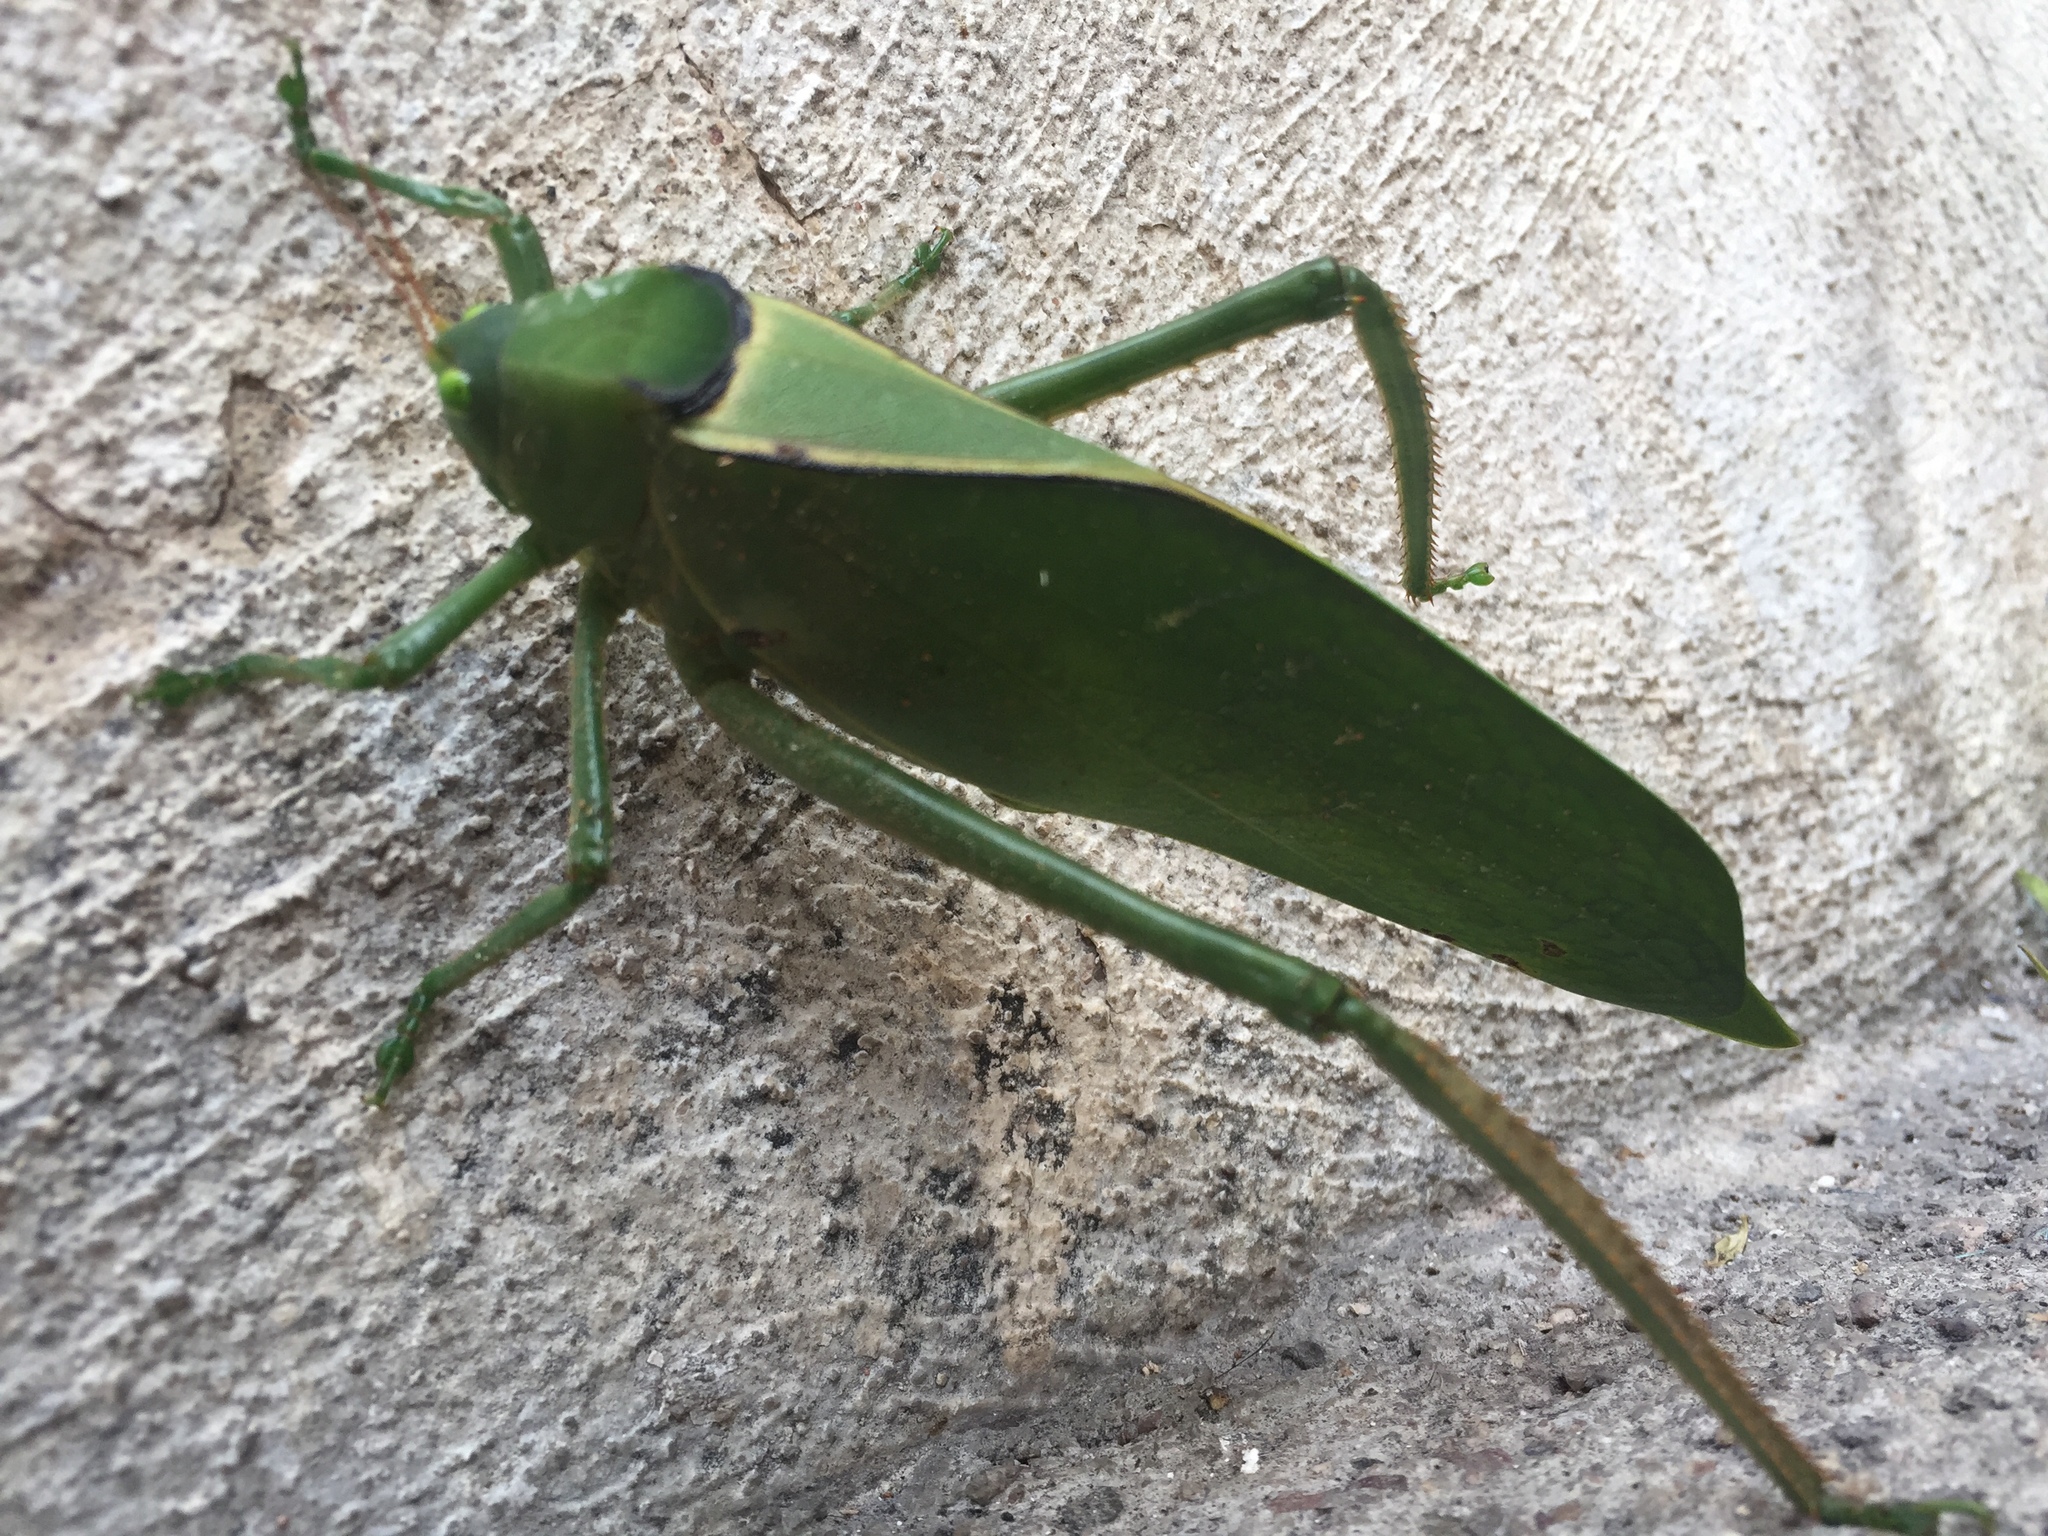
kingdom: Animalia
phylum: Arthropoda
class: Insecta
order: Orthoptera
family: Tettigoniidae
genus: Stilpnochlora
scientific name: Stilpnochlora azteca
